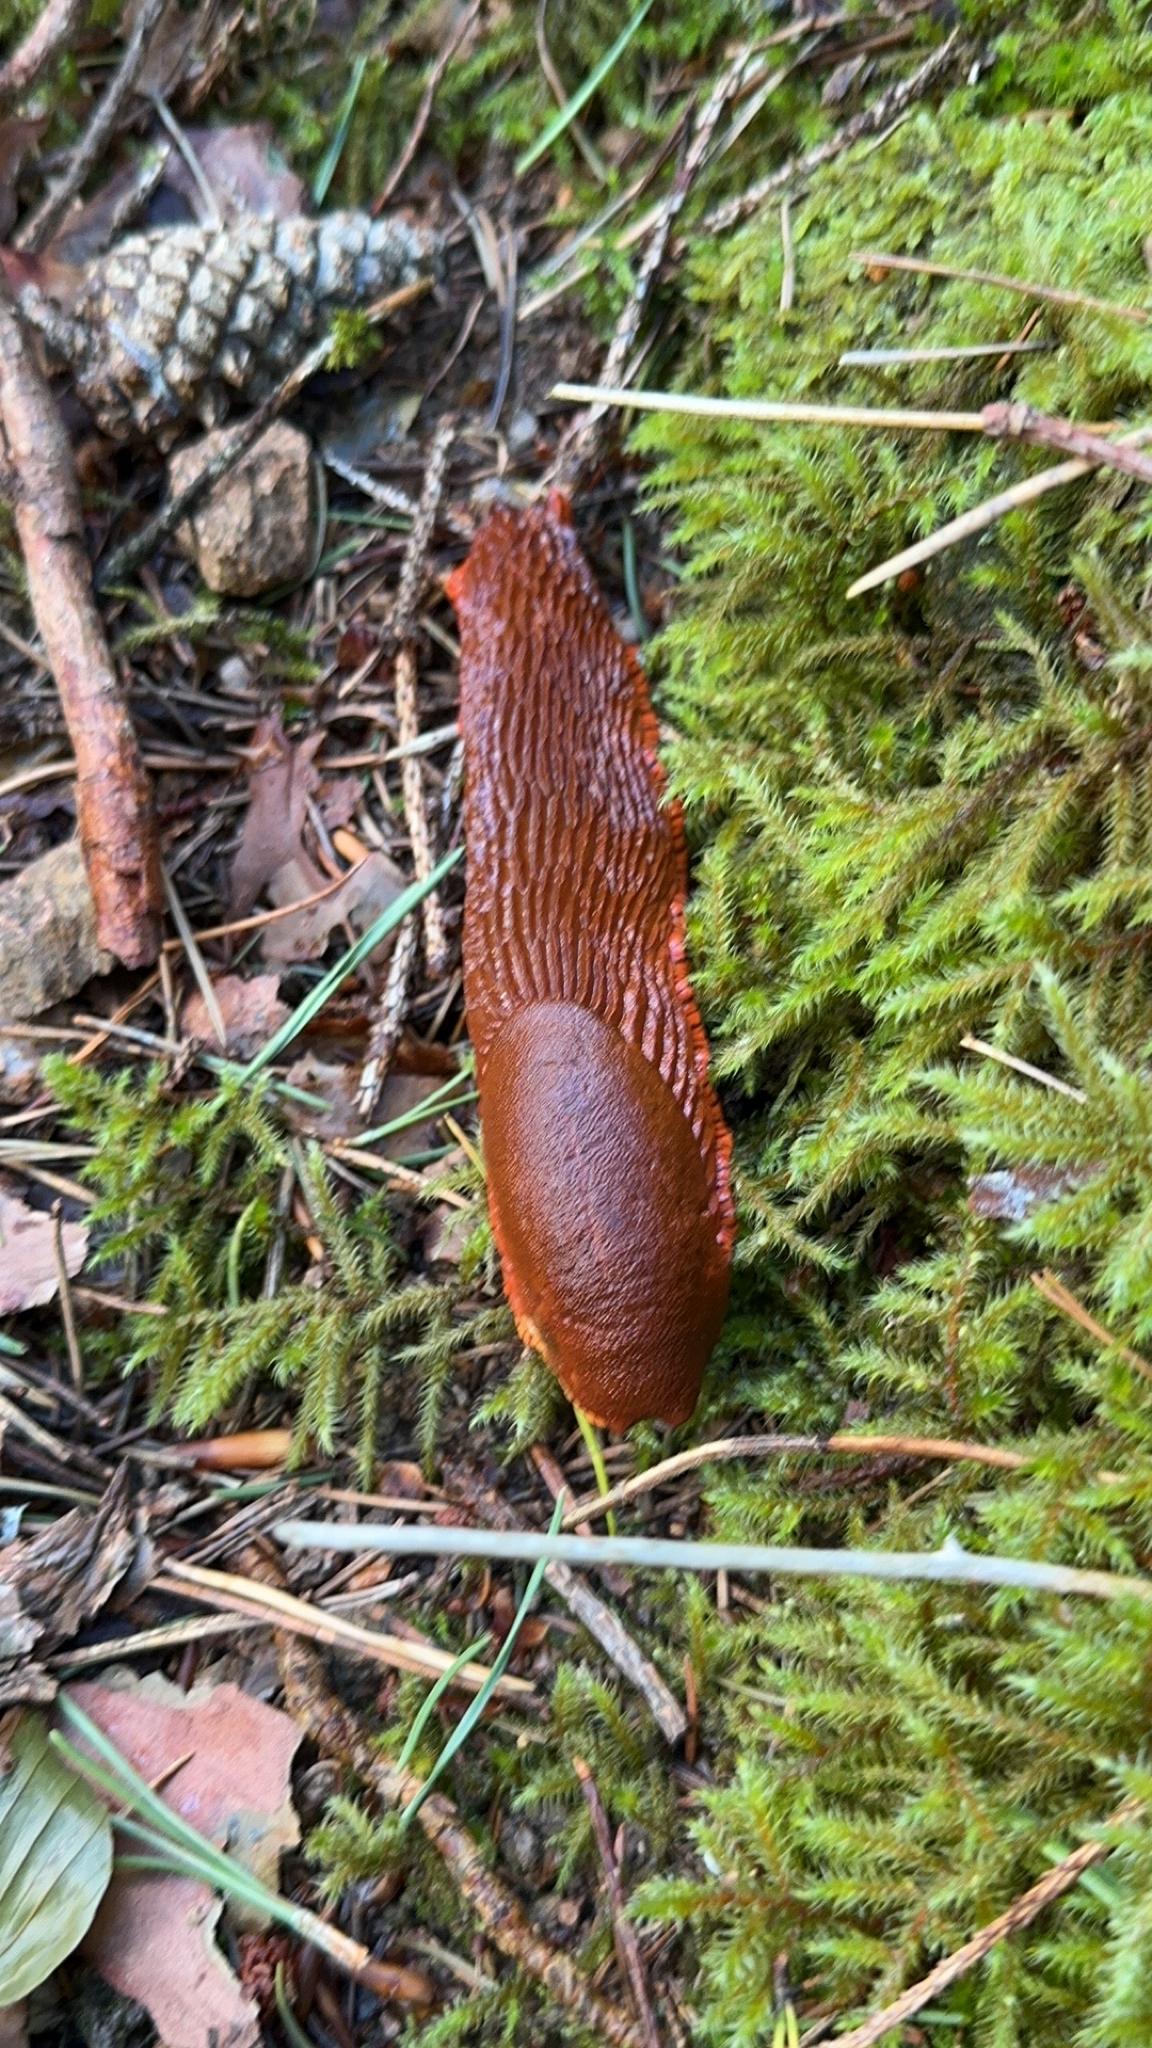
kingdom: Animalia
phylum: Mollusca
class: Gastropoda
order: Stylommatophora
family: Arionidae
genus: Arion
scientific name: Arion rufus
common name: Chocolate arion
